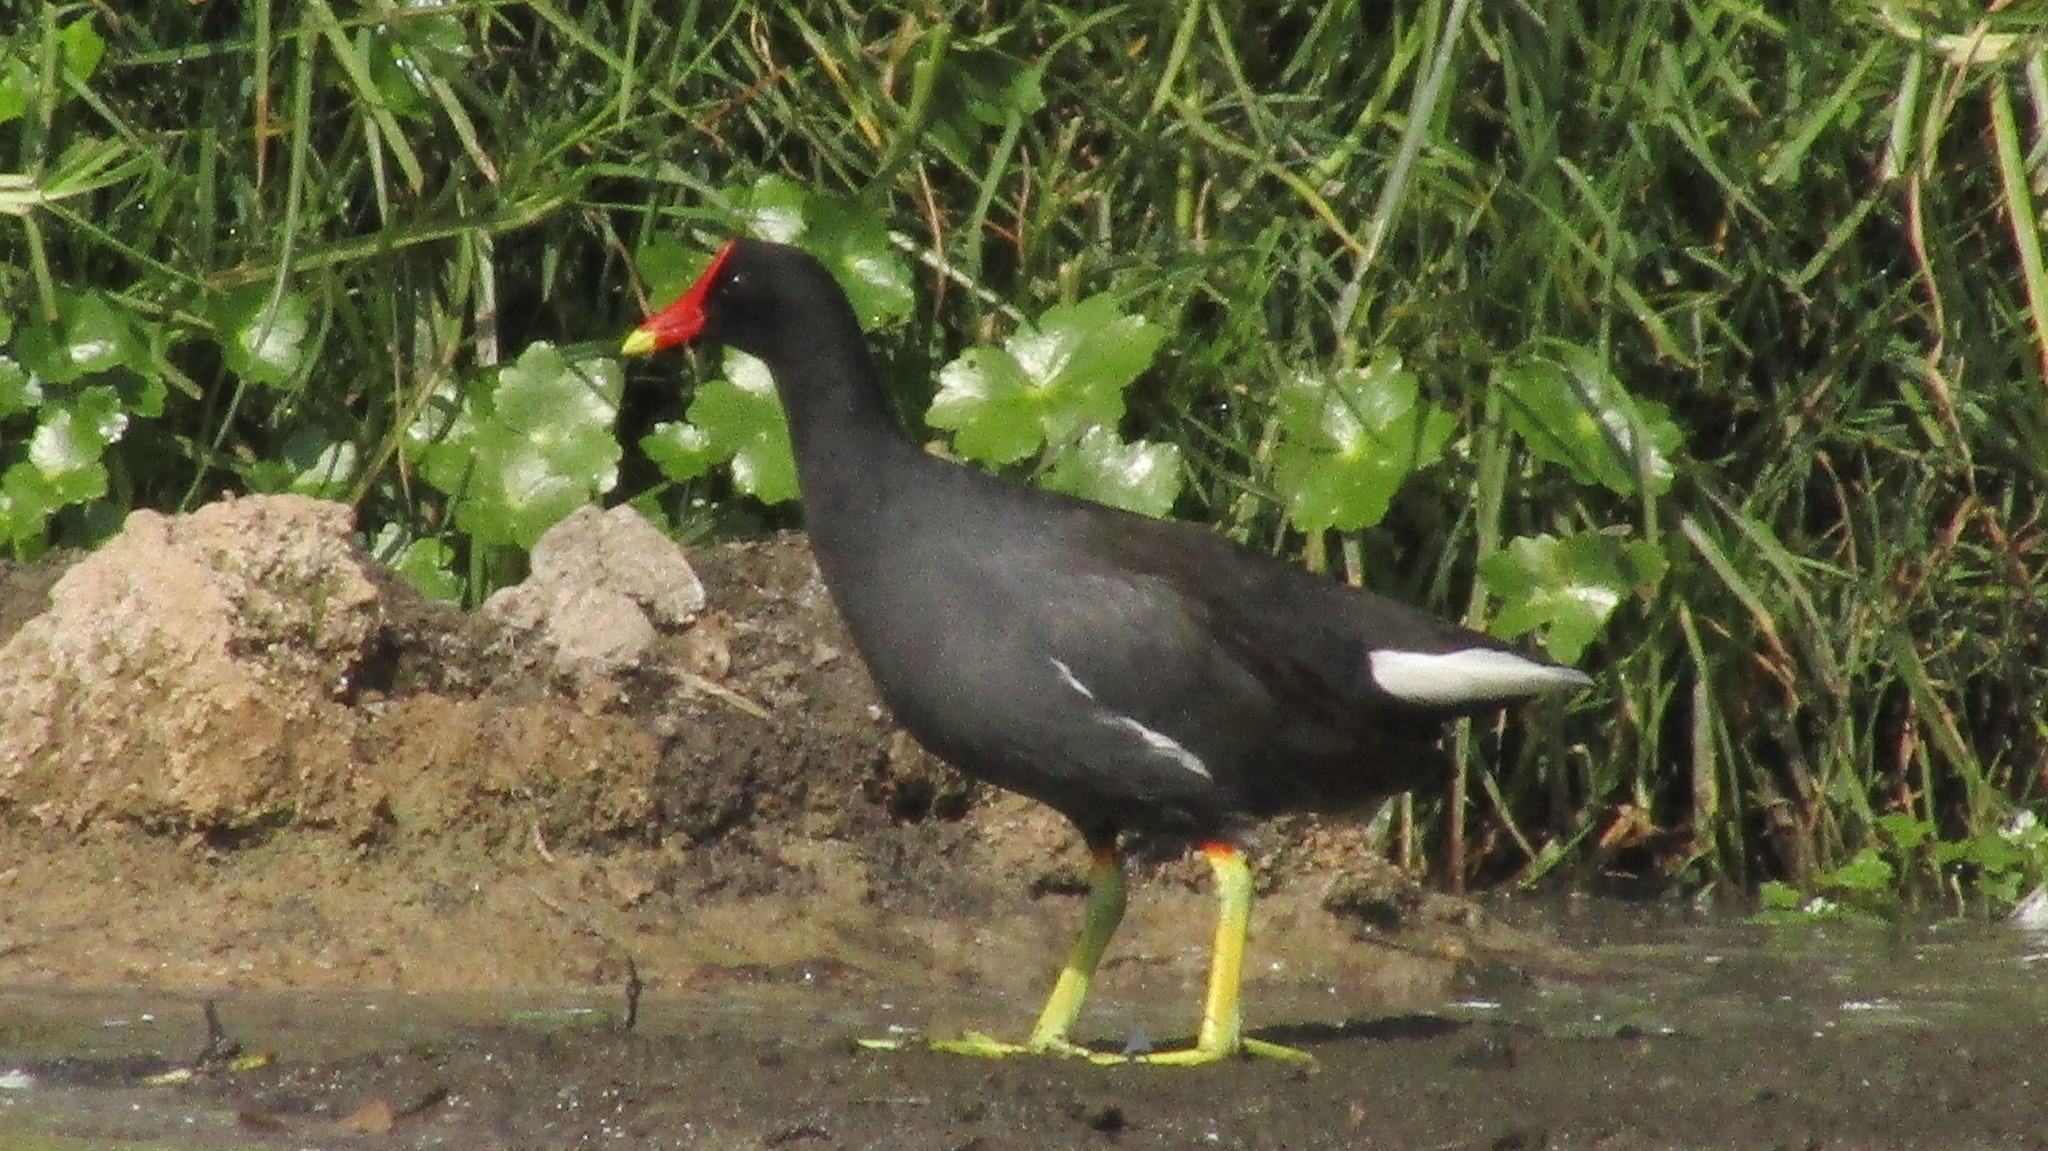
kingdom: Animalia
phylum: Chordata
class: Aves
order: Gruiformes
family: Rallidae
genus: Gallinula
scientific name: Gallinula chloropus
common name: Common moorhen
